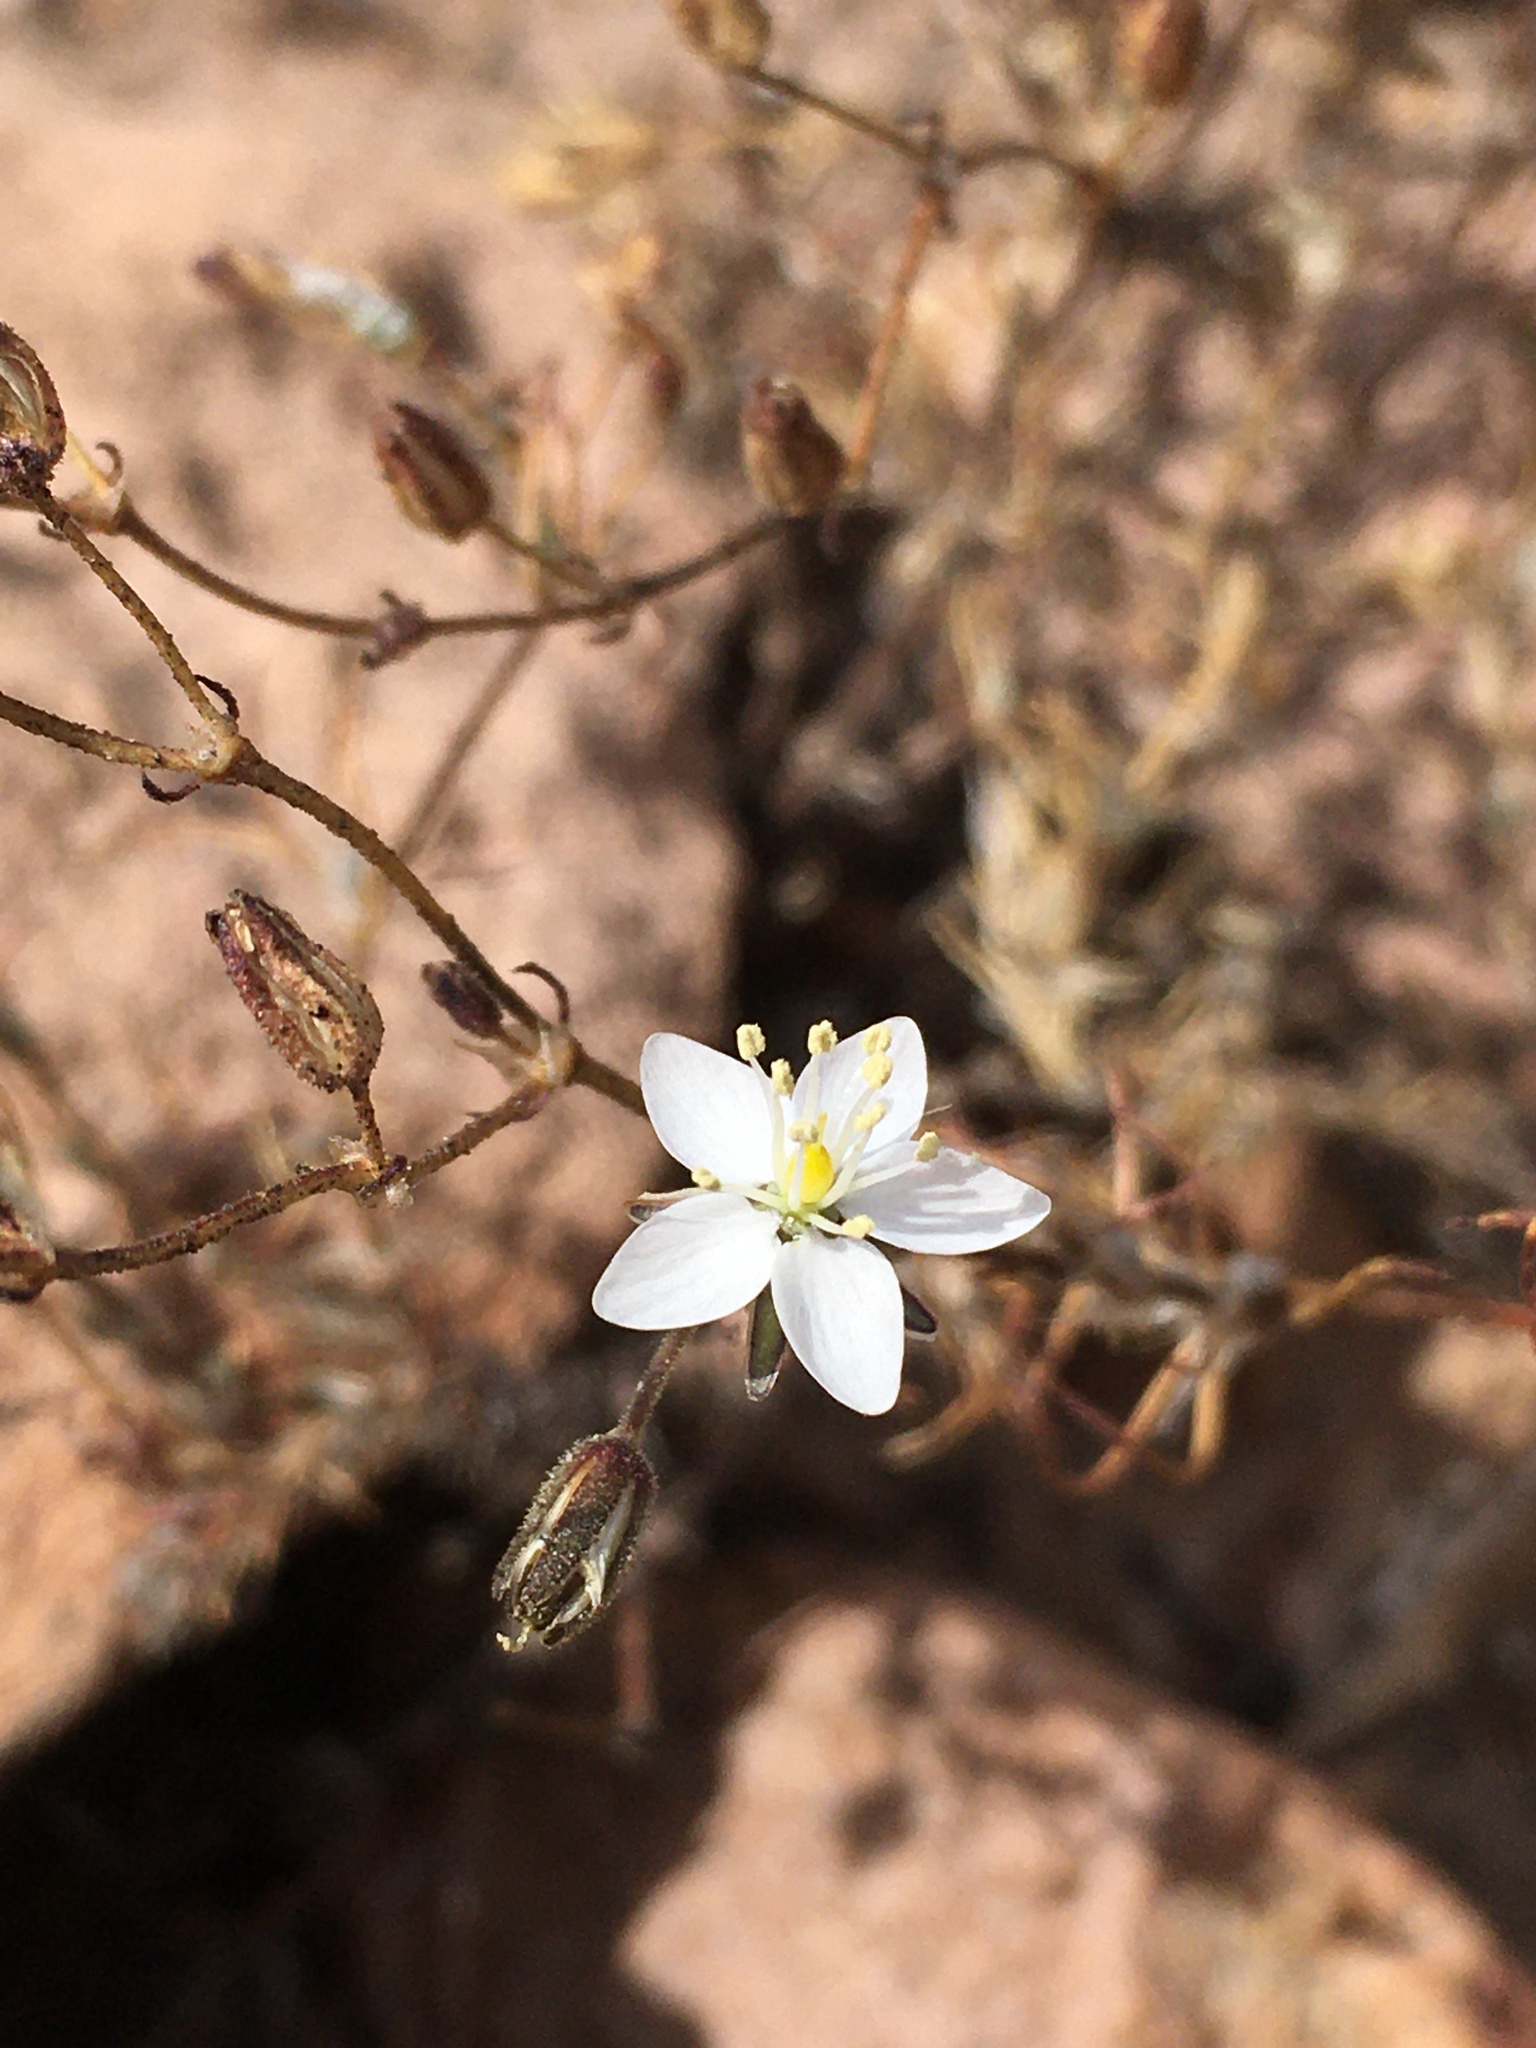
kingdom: Plantae
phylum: Tracheophyta
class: Magnoliopsida
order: Caryophyllales
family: Caryophyllaceae
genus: Spergularia
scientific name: Spergularia fasciculata
